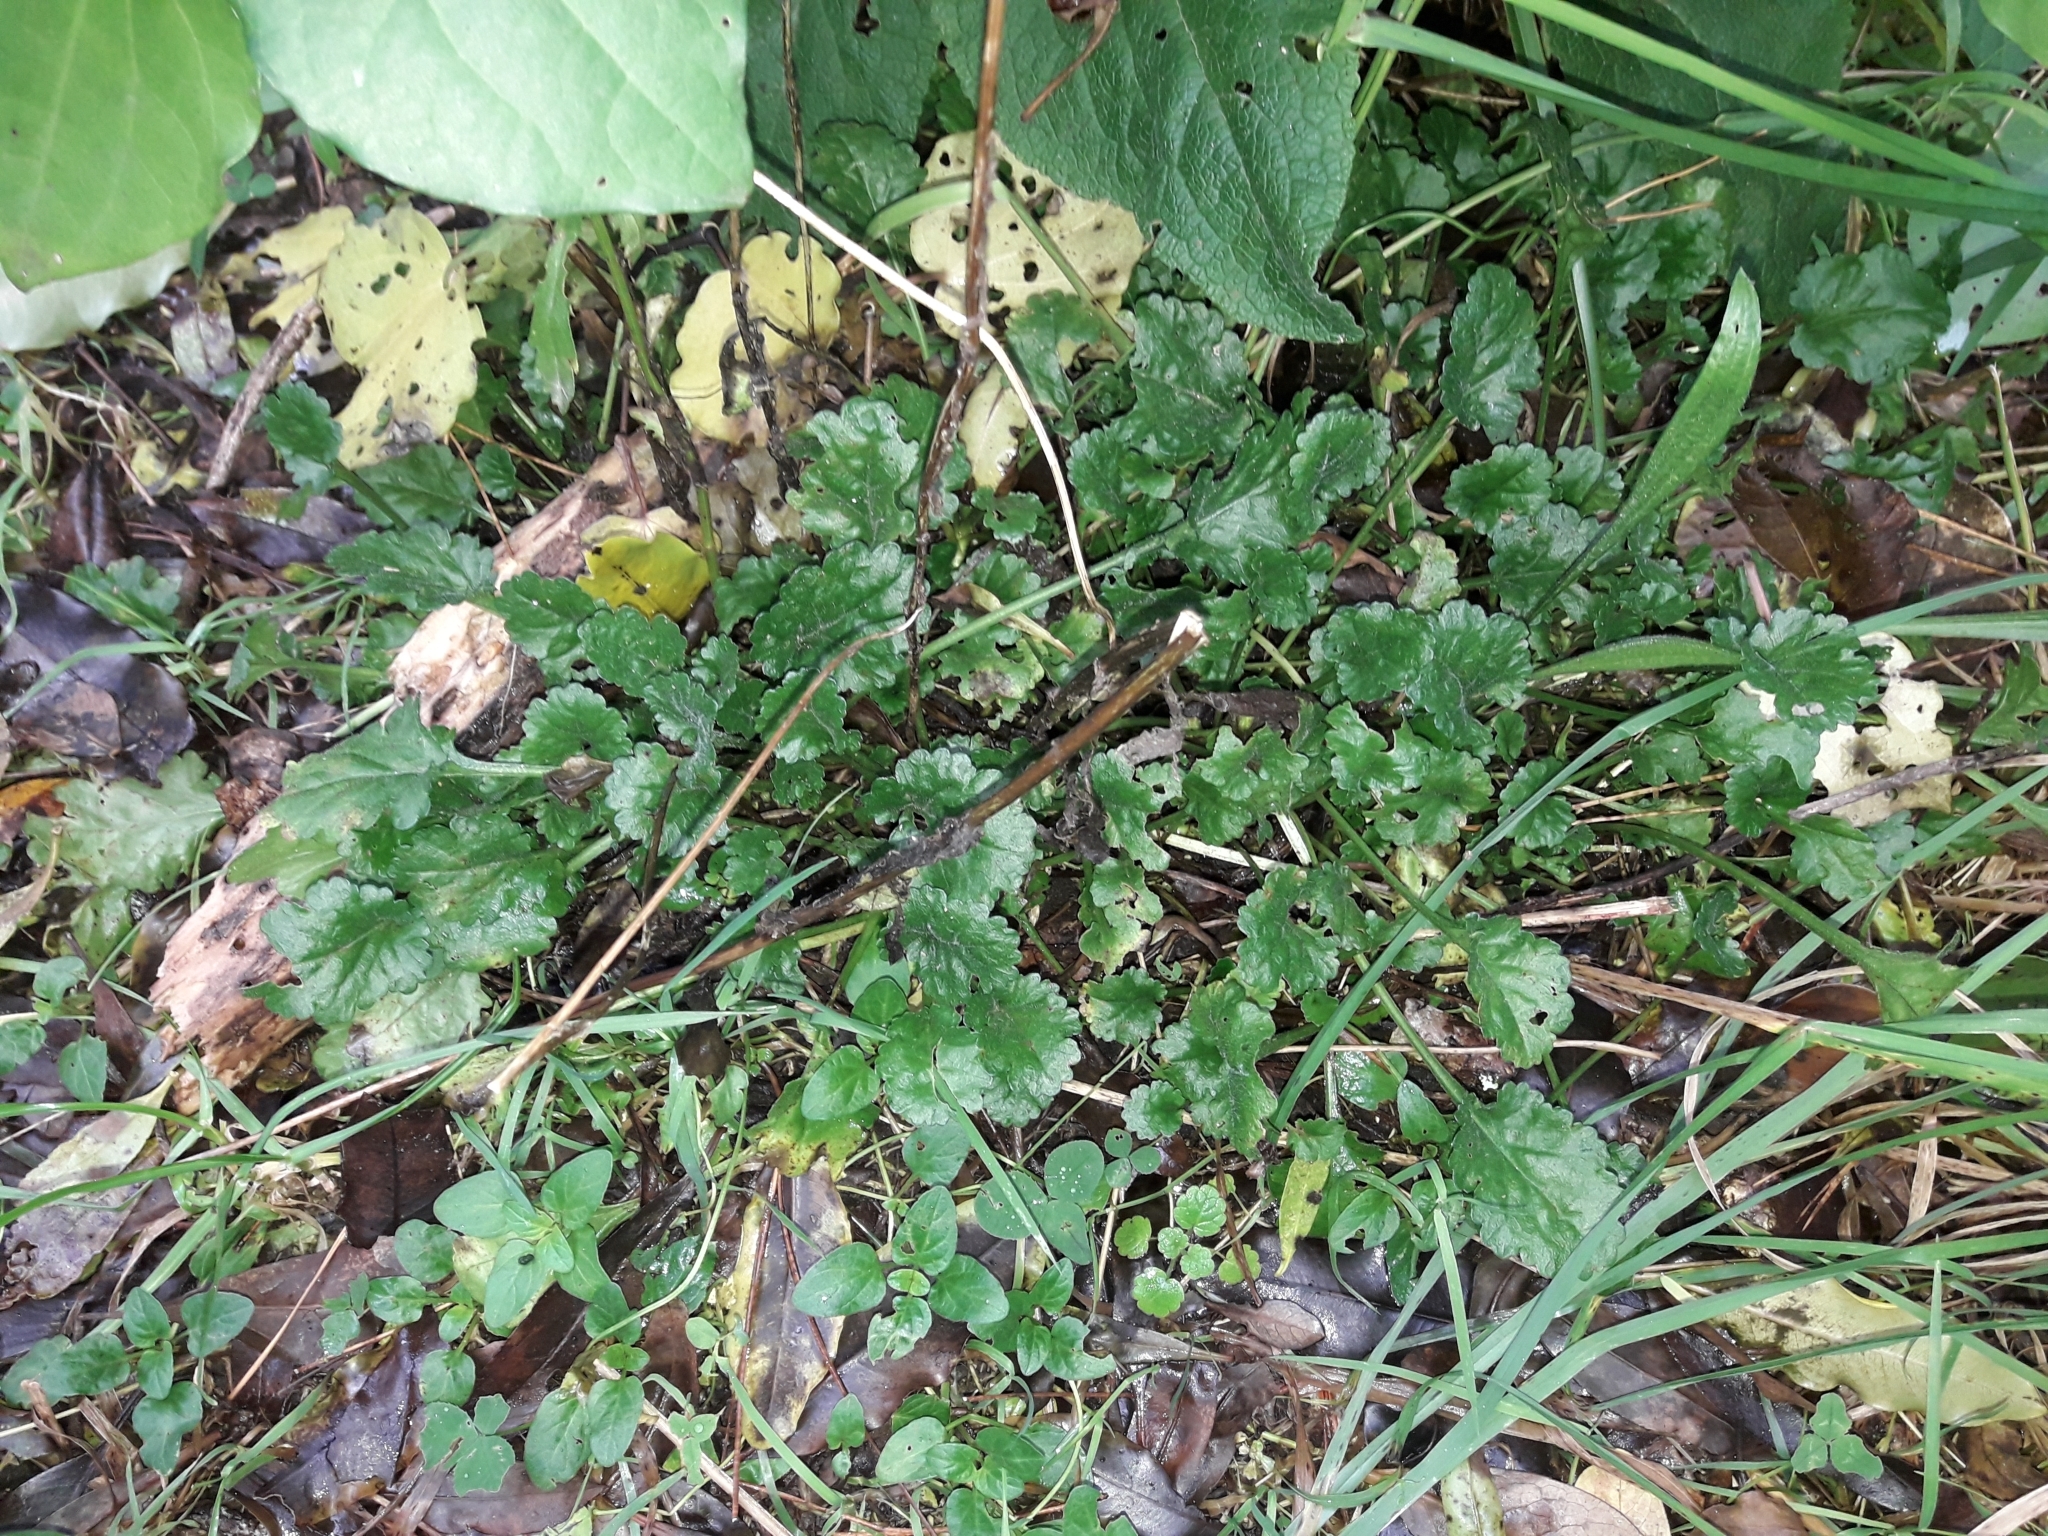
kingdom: Plantae
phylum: Tracheophyta
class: Magnoliopsida
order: Asterales
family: Asteraceae
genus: Leucanthemum
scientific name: Leucanthemum vulgare
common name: Oxeye daisy
